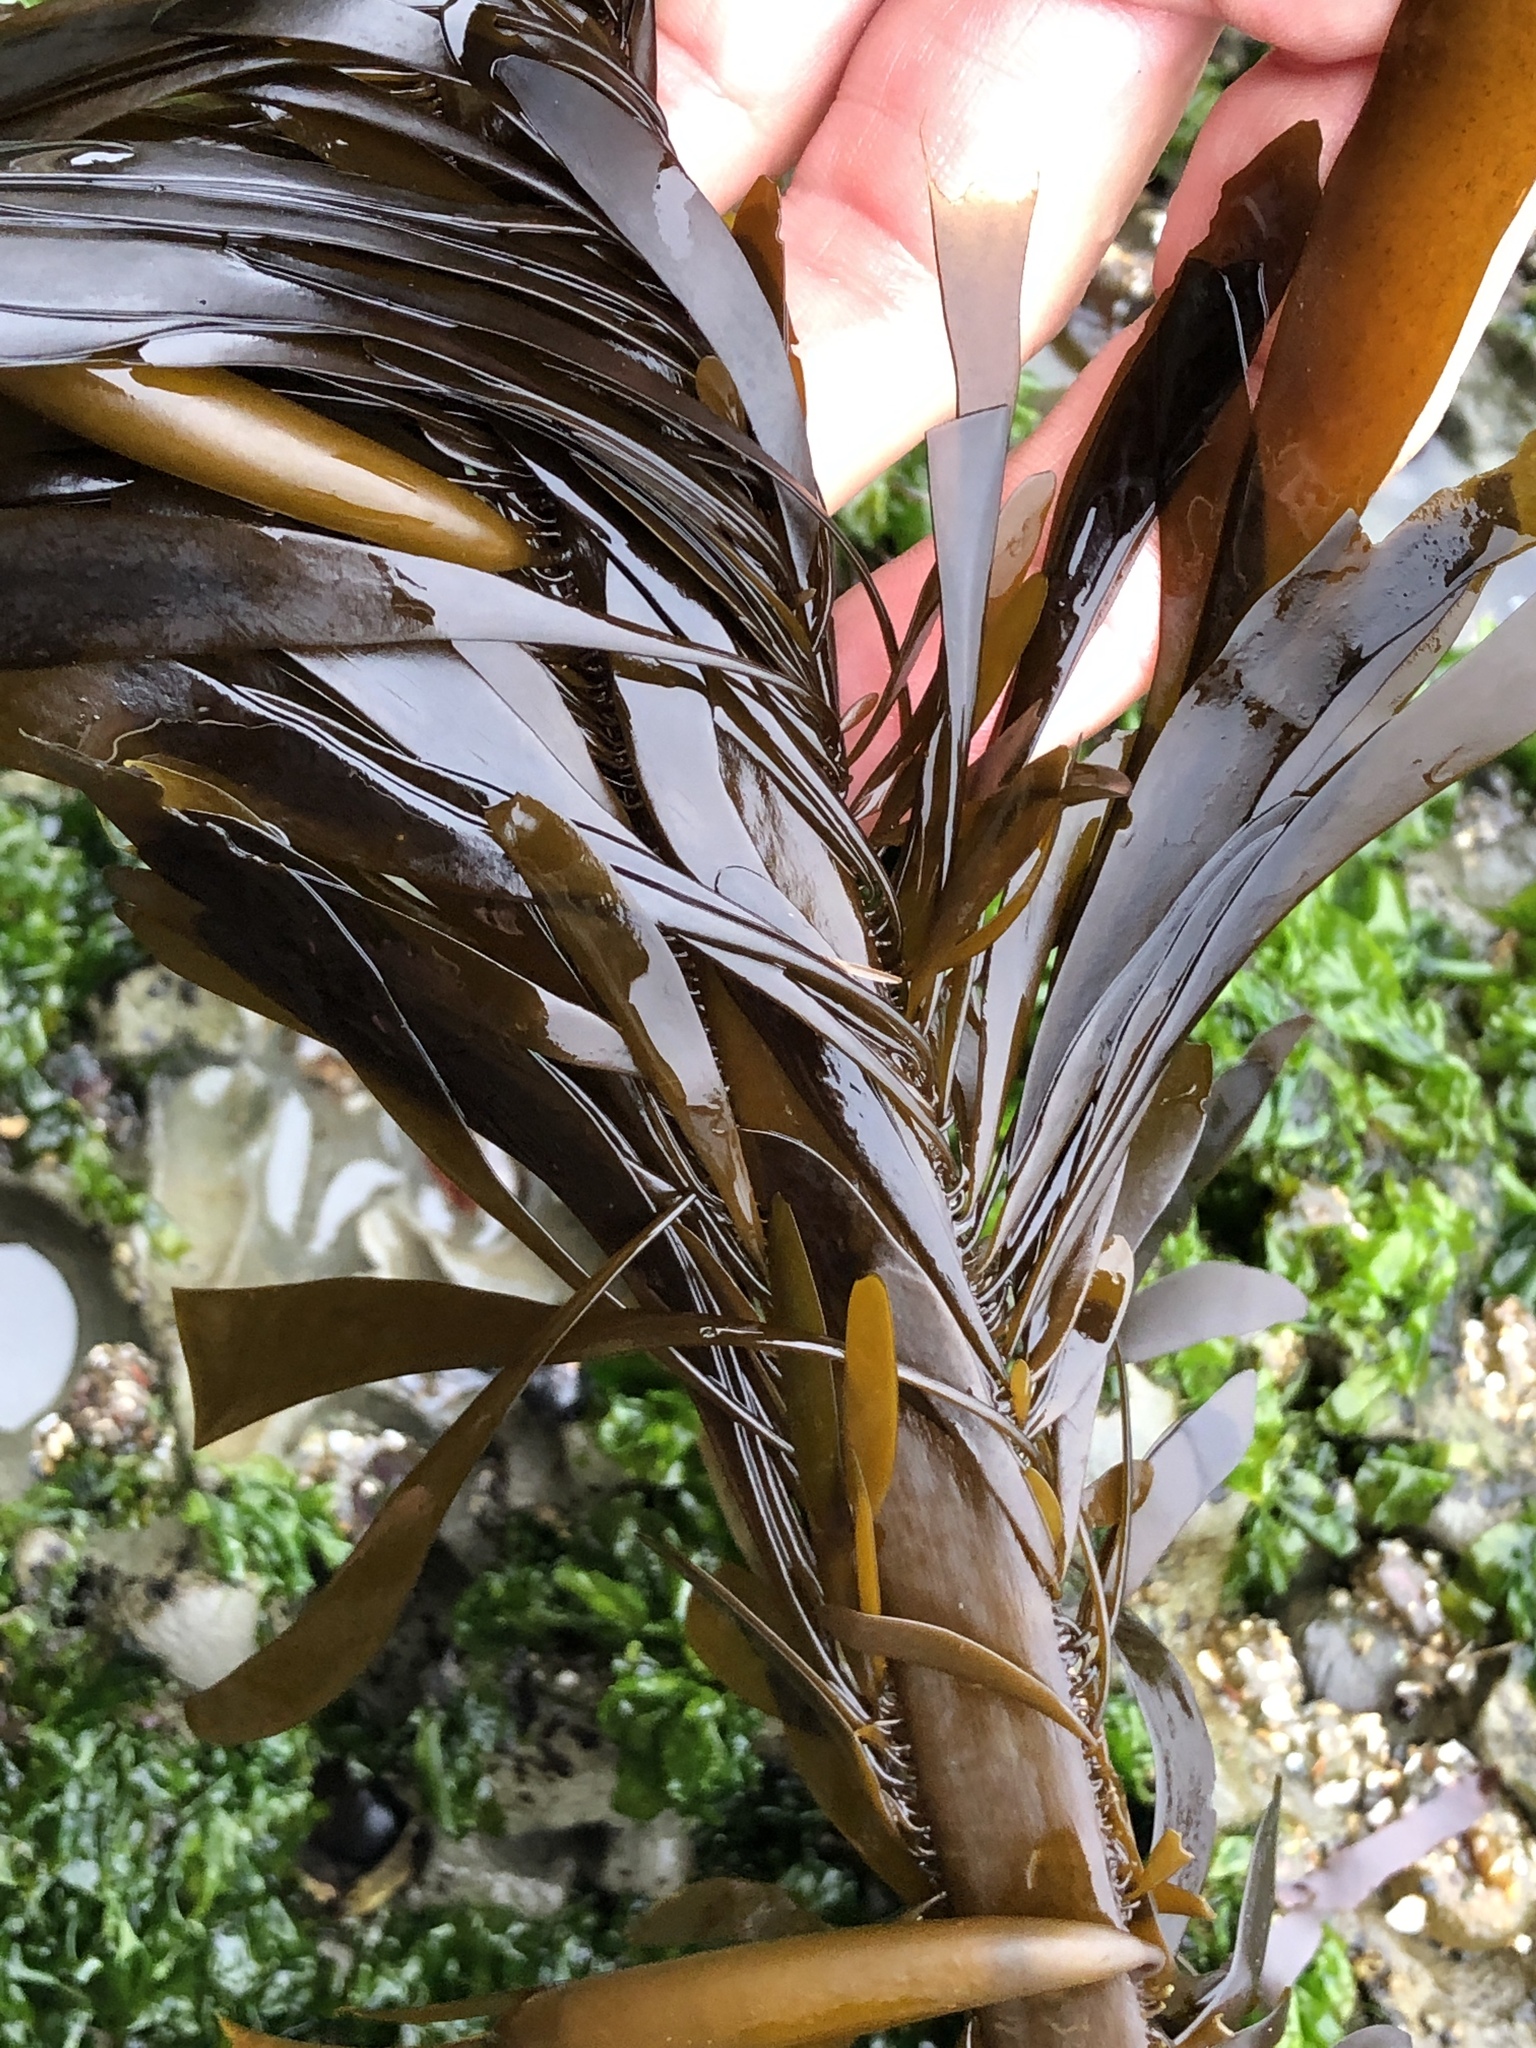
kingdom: Chromista
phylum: Ochrophyta
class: Phaeophyceae
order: Laminariales
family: Lessoniaceae
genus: Egregia
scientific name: Egregia menziesii
